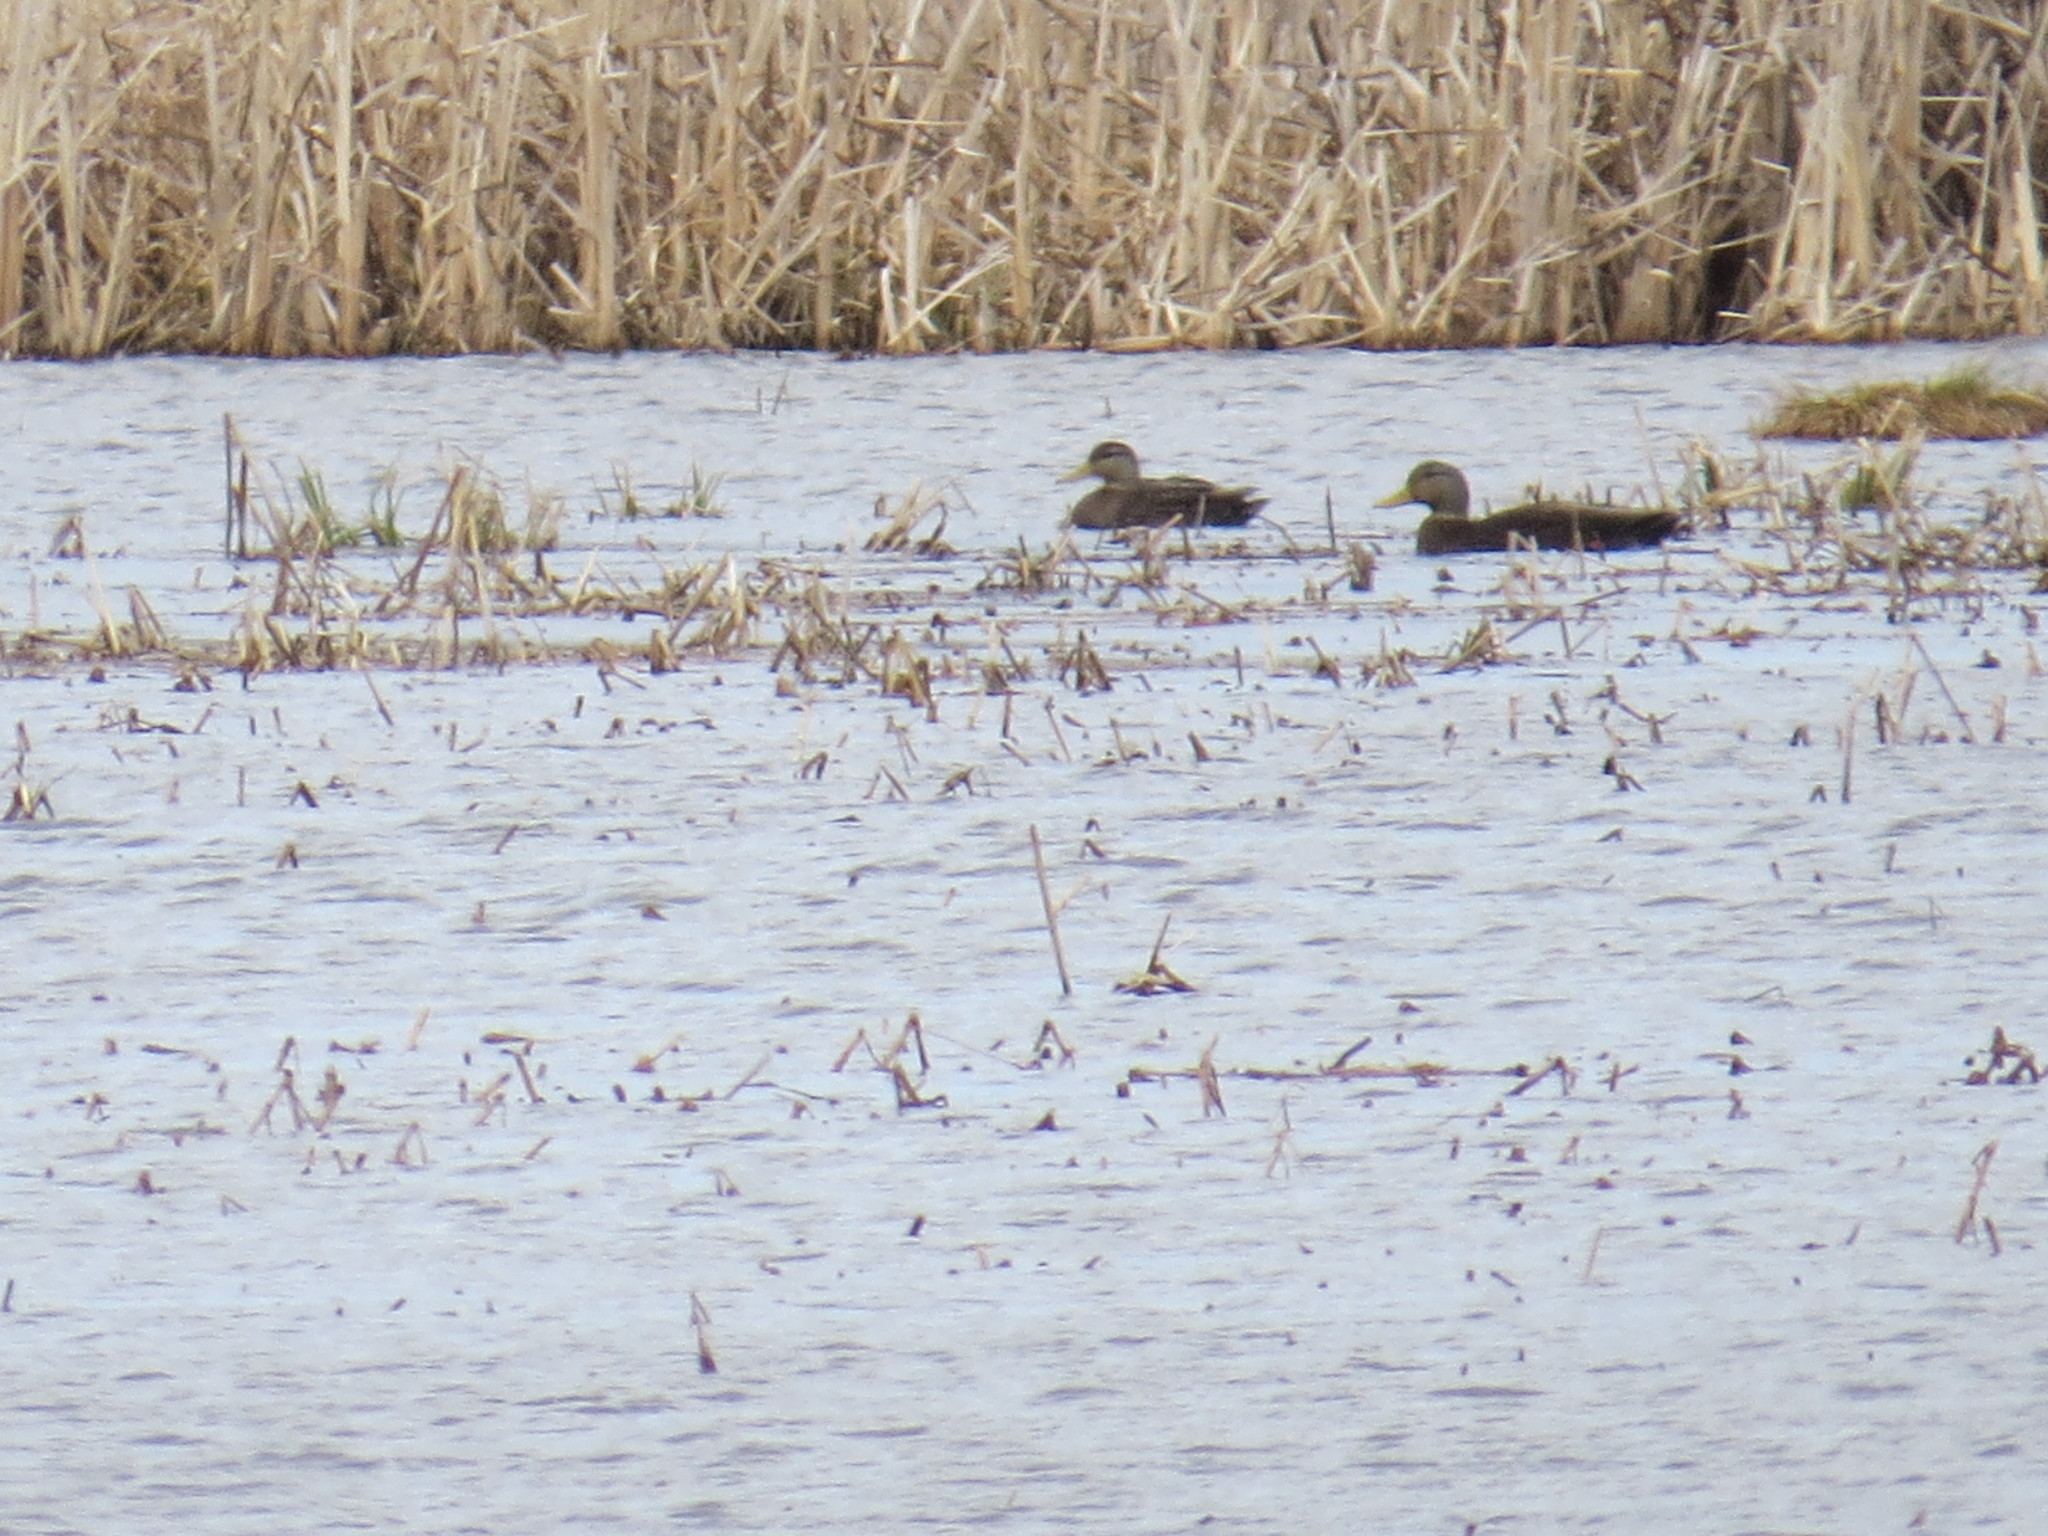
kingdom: Animalia
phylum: Chordata
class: Aves
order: Anseriformes
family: Anatidae
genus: Anas
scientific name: Anas rubripes
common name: American black duck
